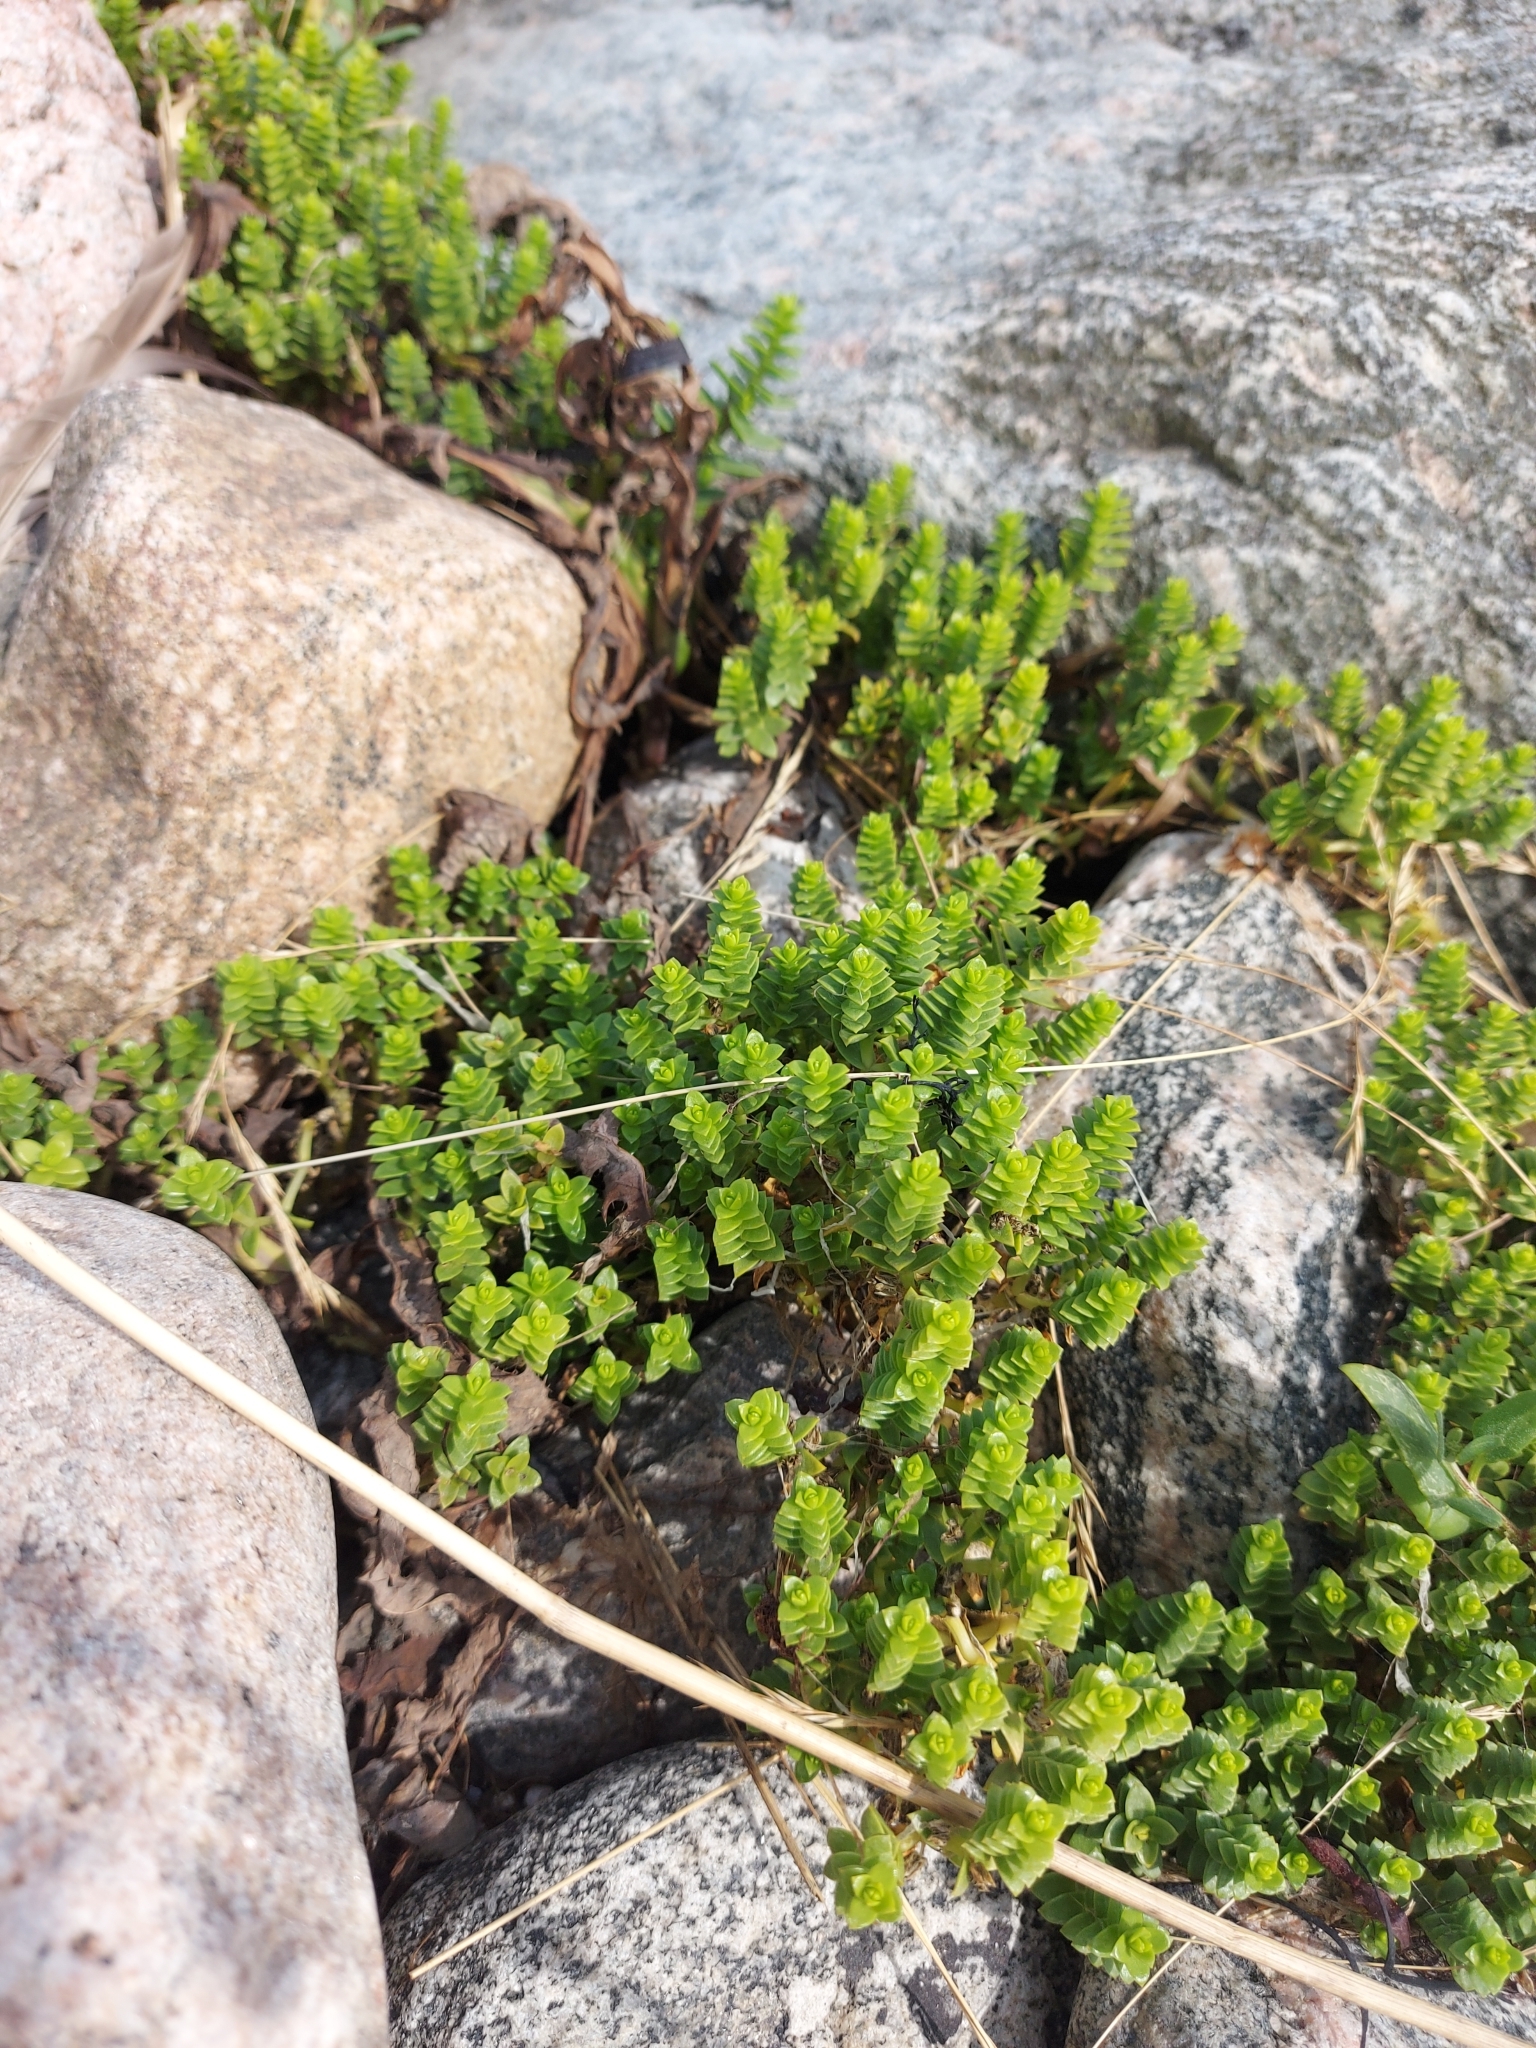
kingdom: Plantae
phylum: Tracheophyta
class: Magnoliopsida
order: Caryophyllales
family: Caryophyllaceae
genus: Honckenya
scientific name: Honckenya peploides
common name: Sea sandwort
